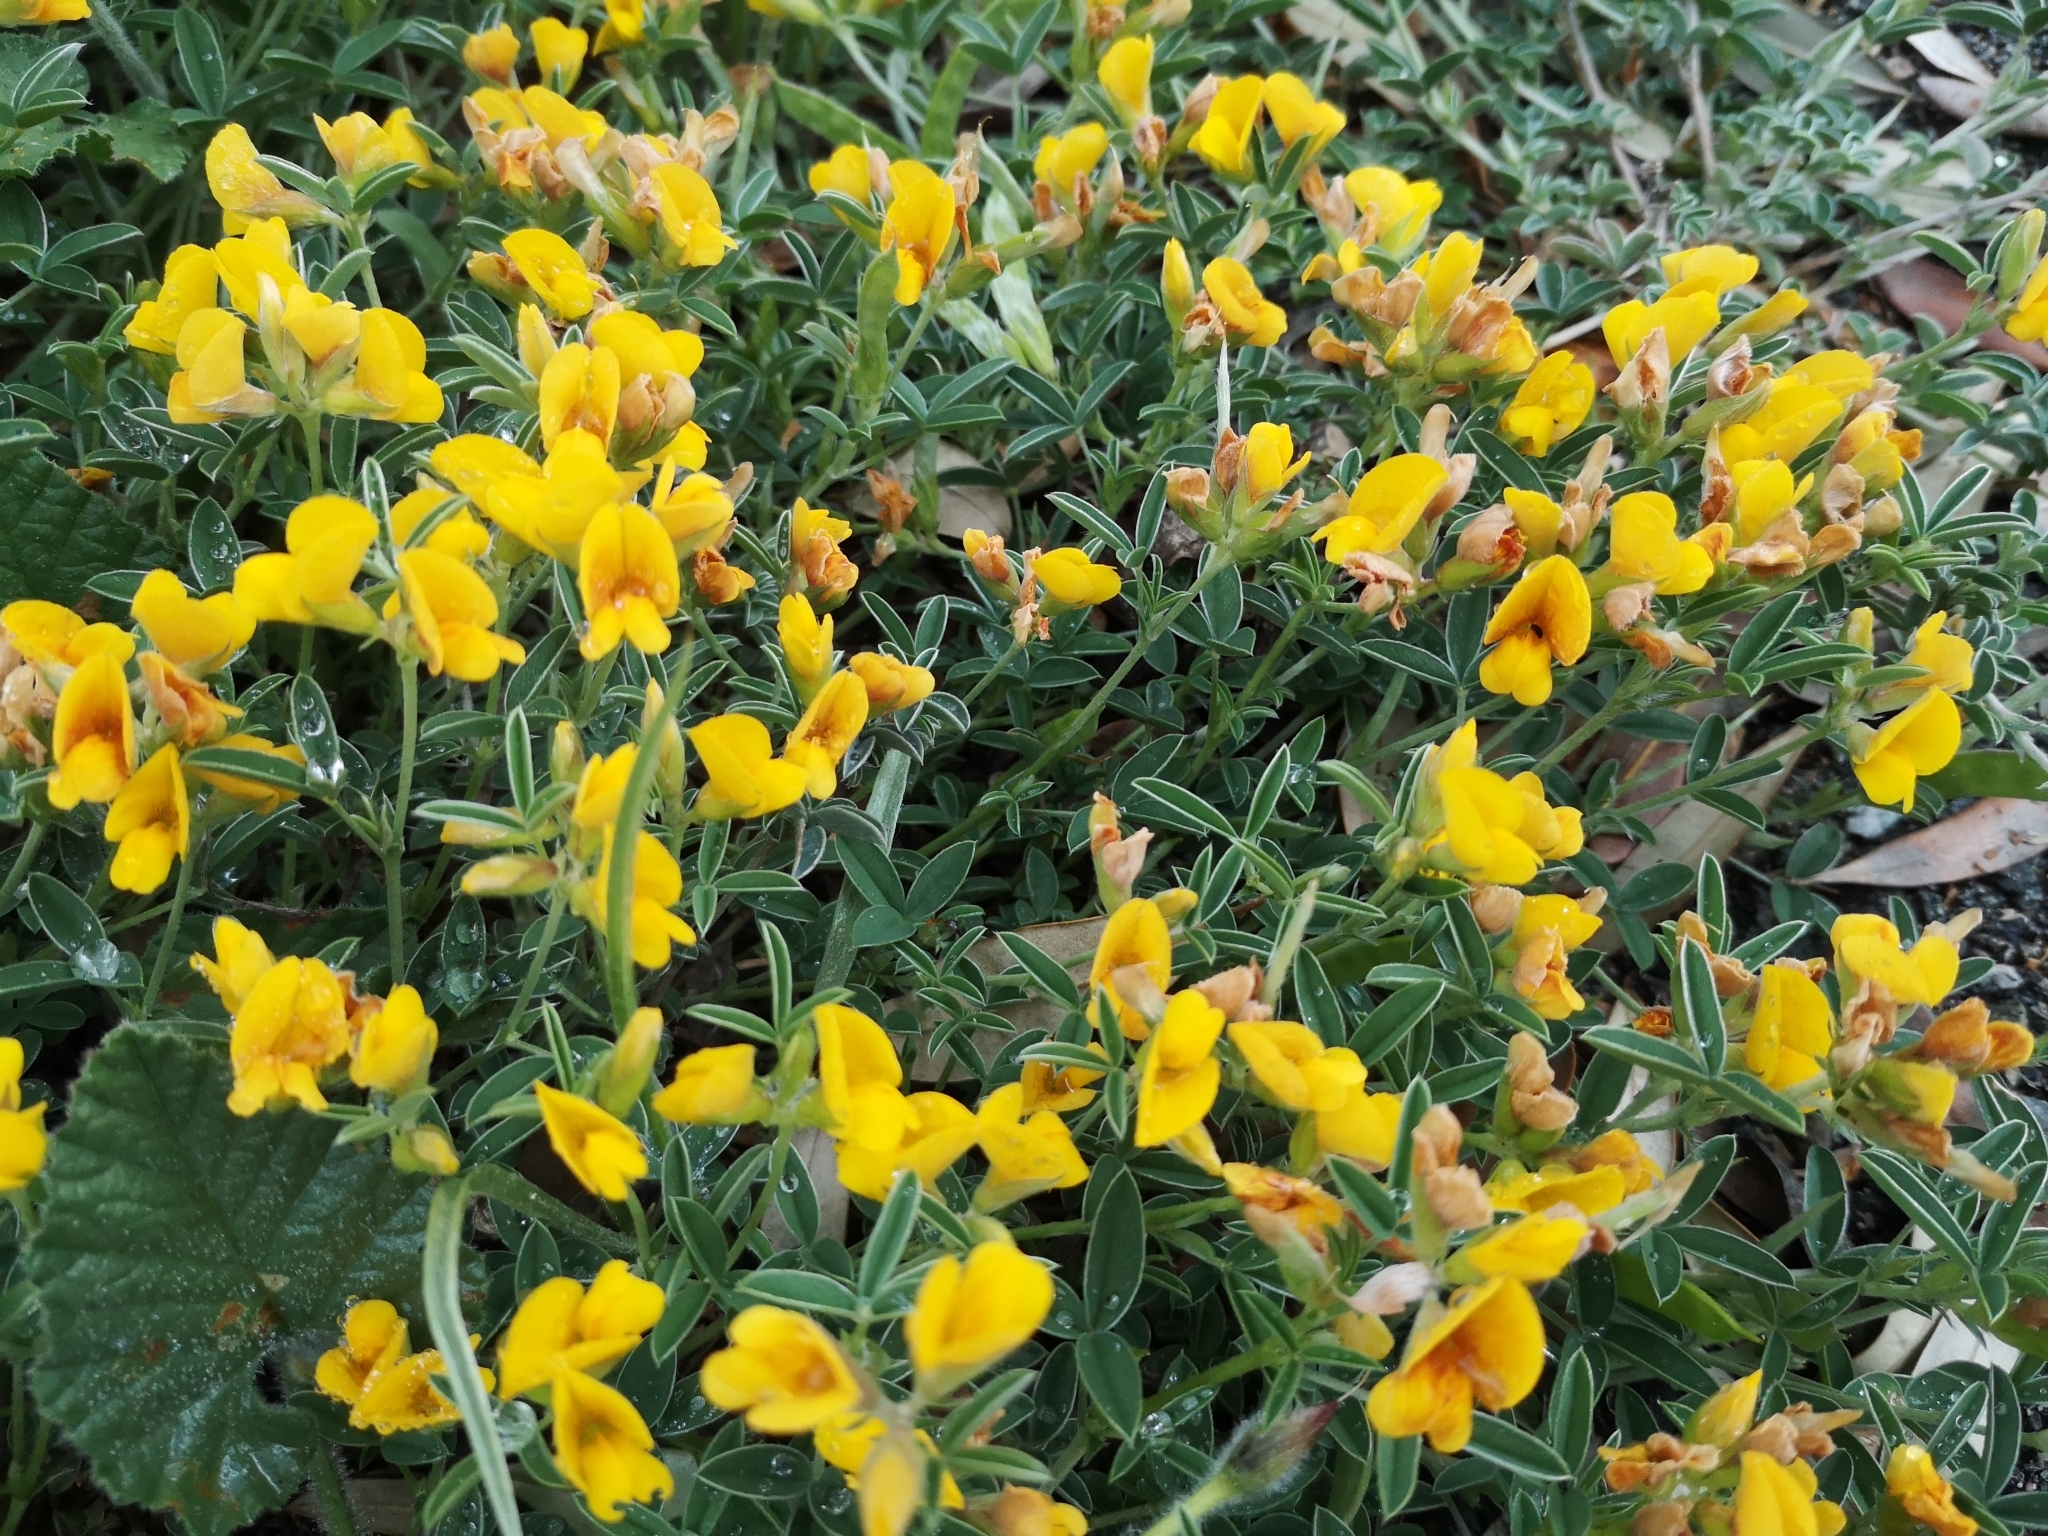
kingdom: Plantae
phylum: Tracheophyta
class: Magnoliopsida
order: Fabales
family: Fabaceae
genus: Argyrolobium
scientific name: Argyrolobium zanonii
